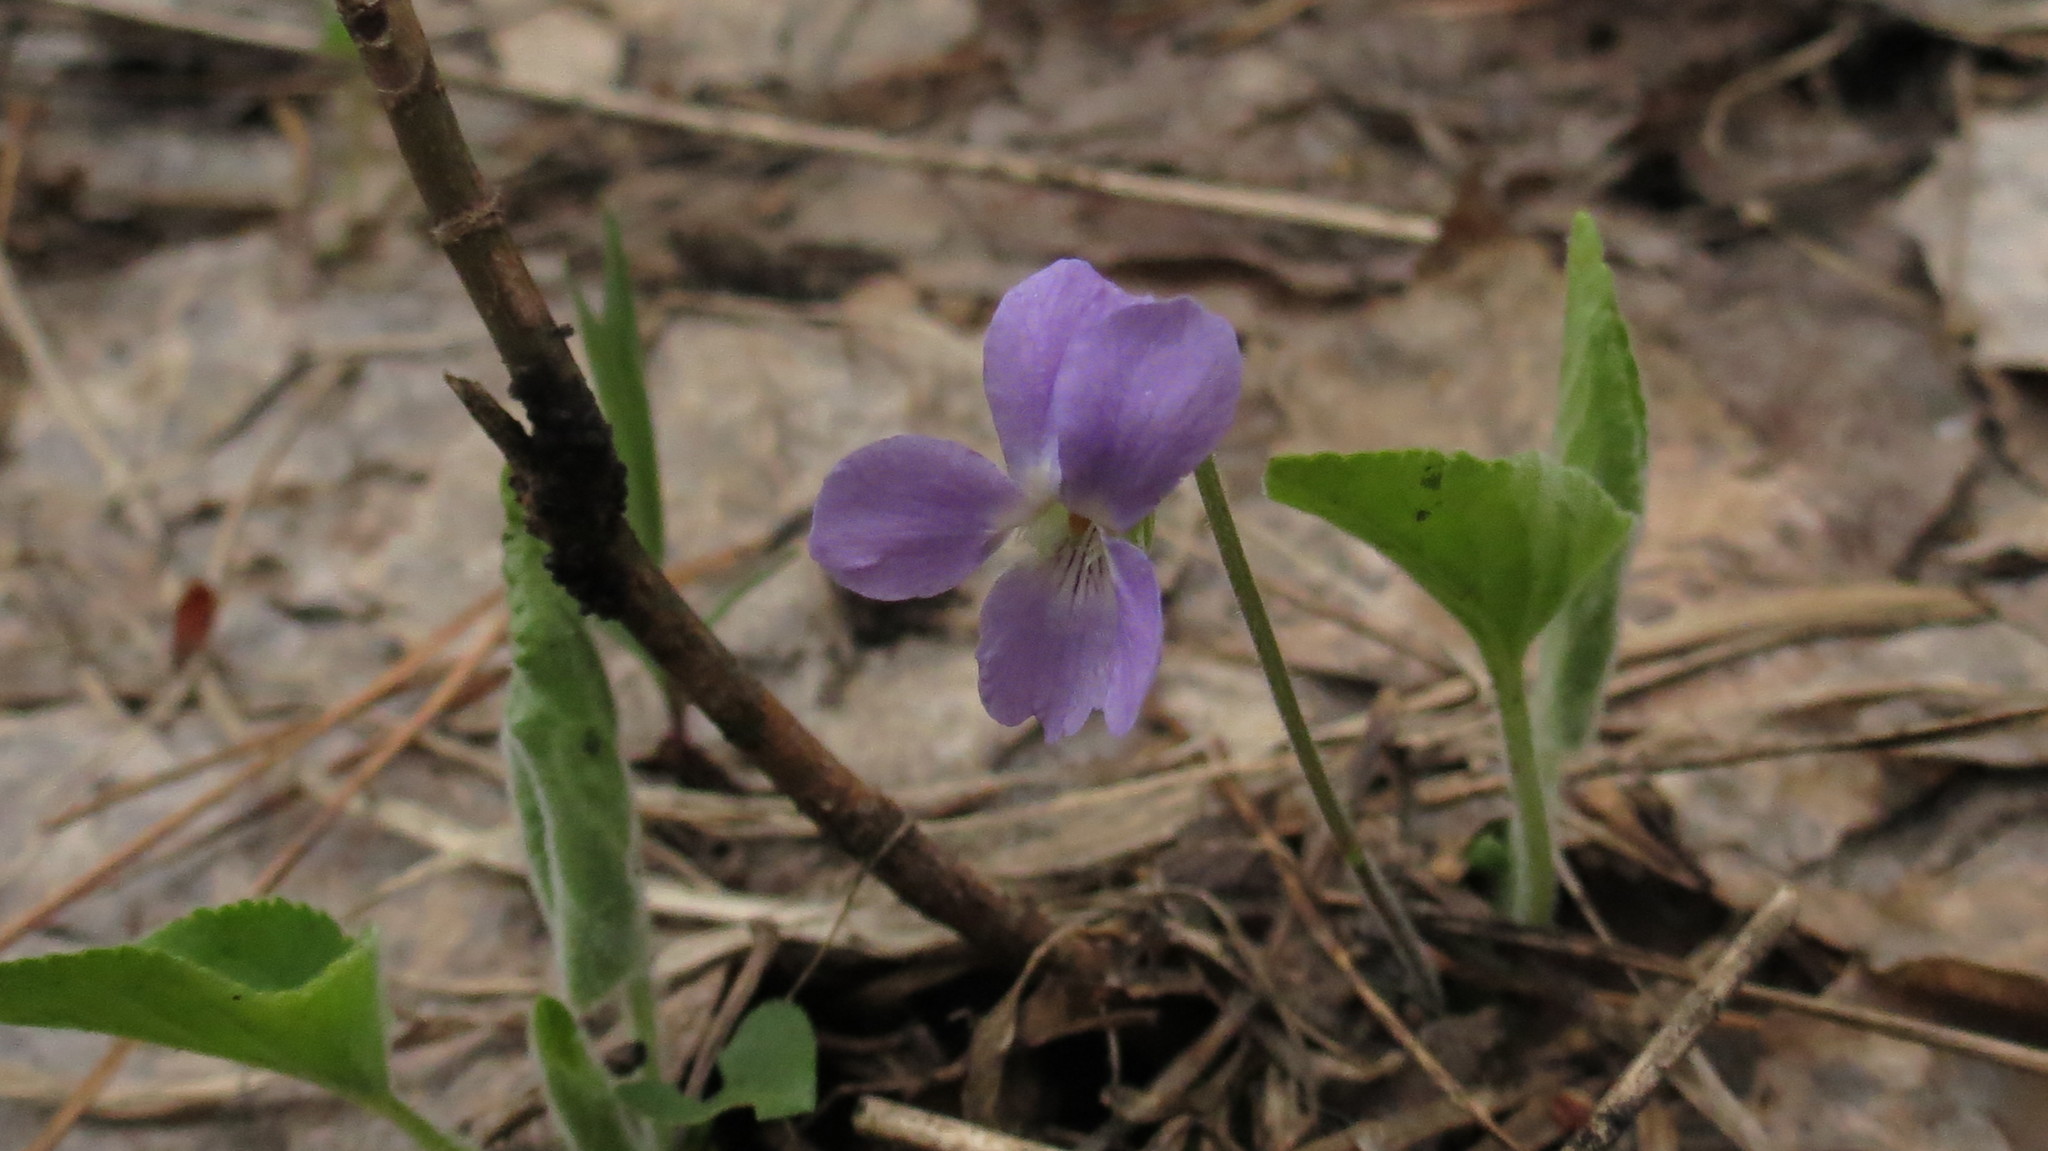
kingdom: Plantae
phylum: Tracheophyta
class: Magnoliopsida
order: Malpighiales
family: Violaceae
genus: Viola
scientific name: Viola hirta
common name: Hairy violet
